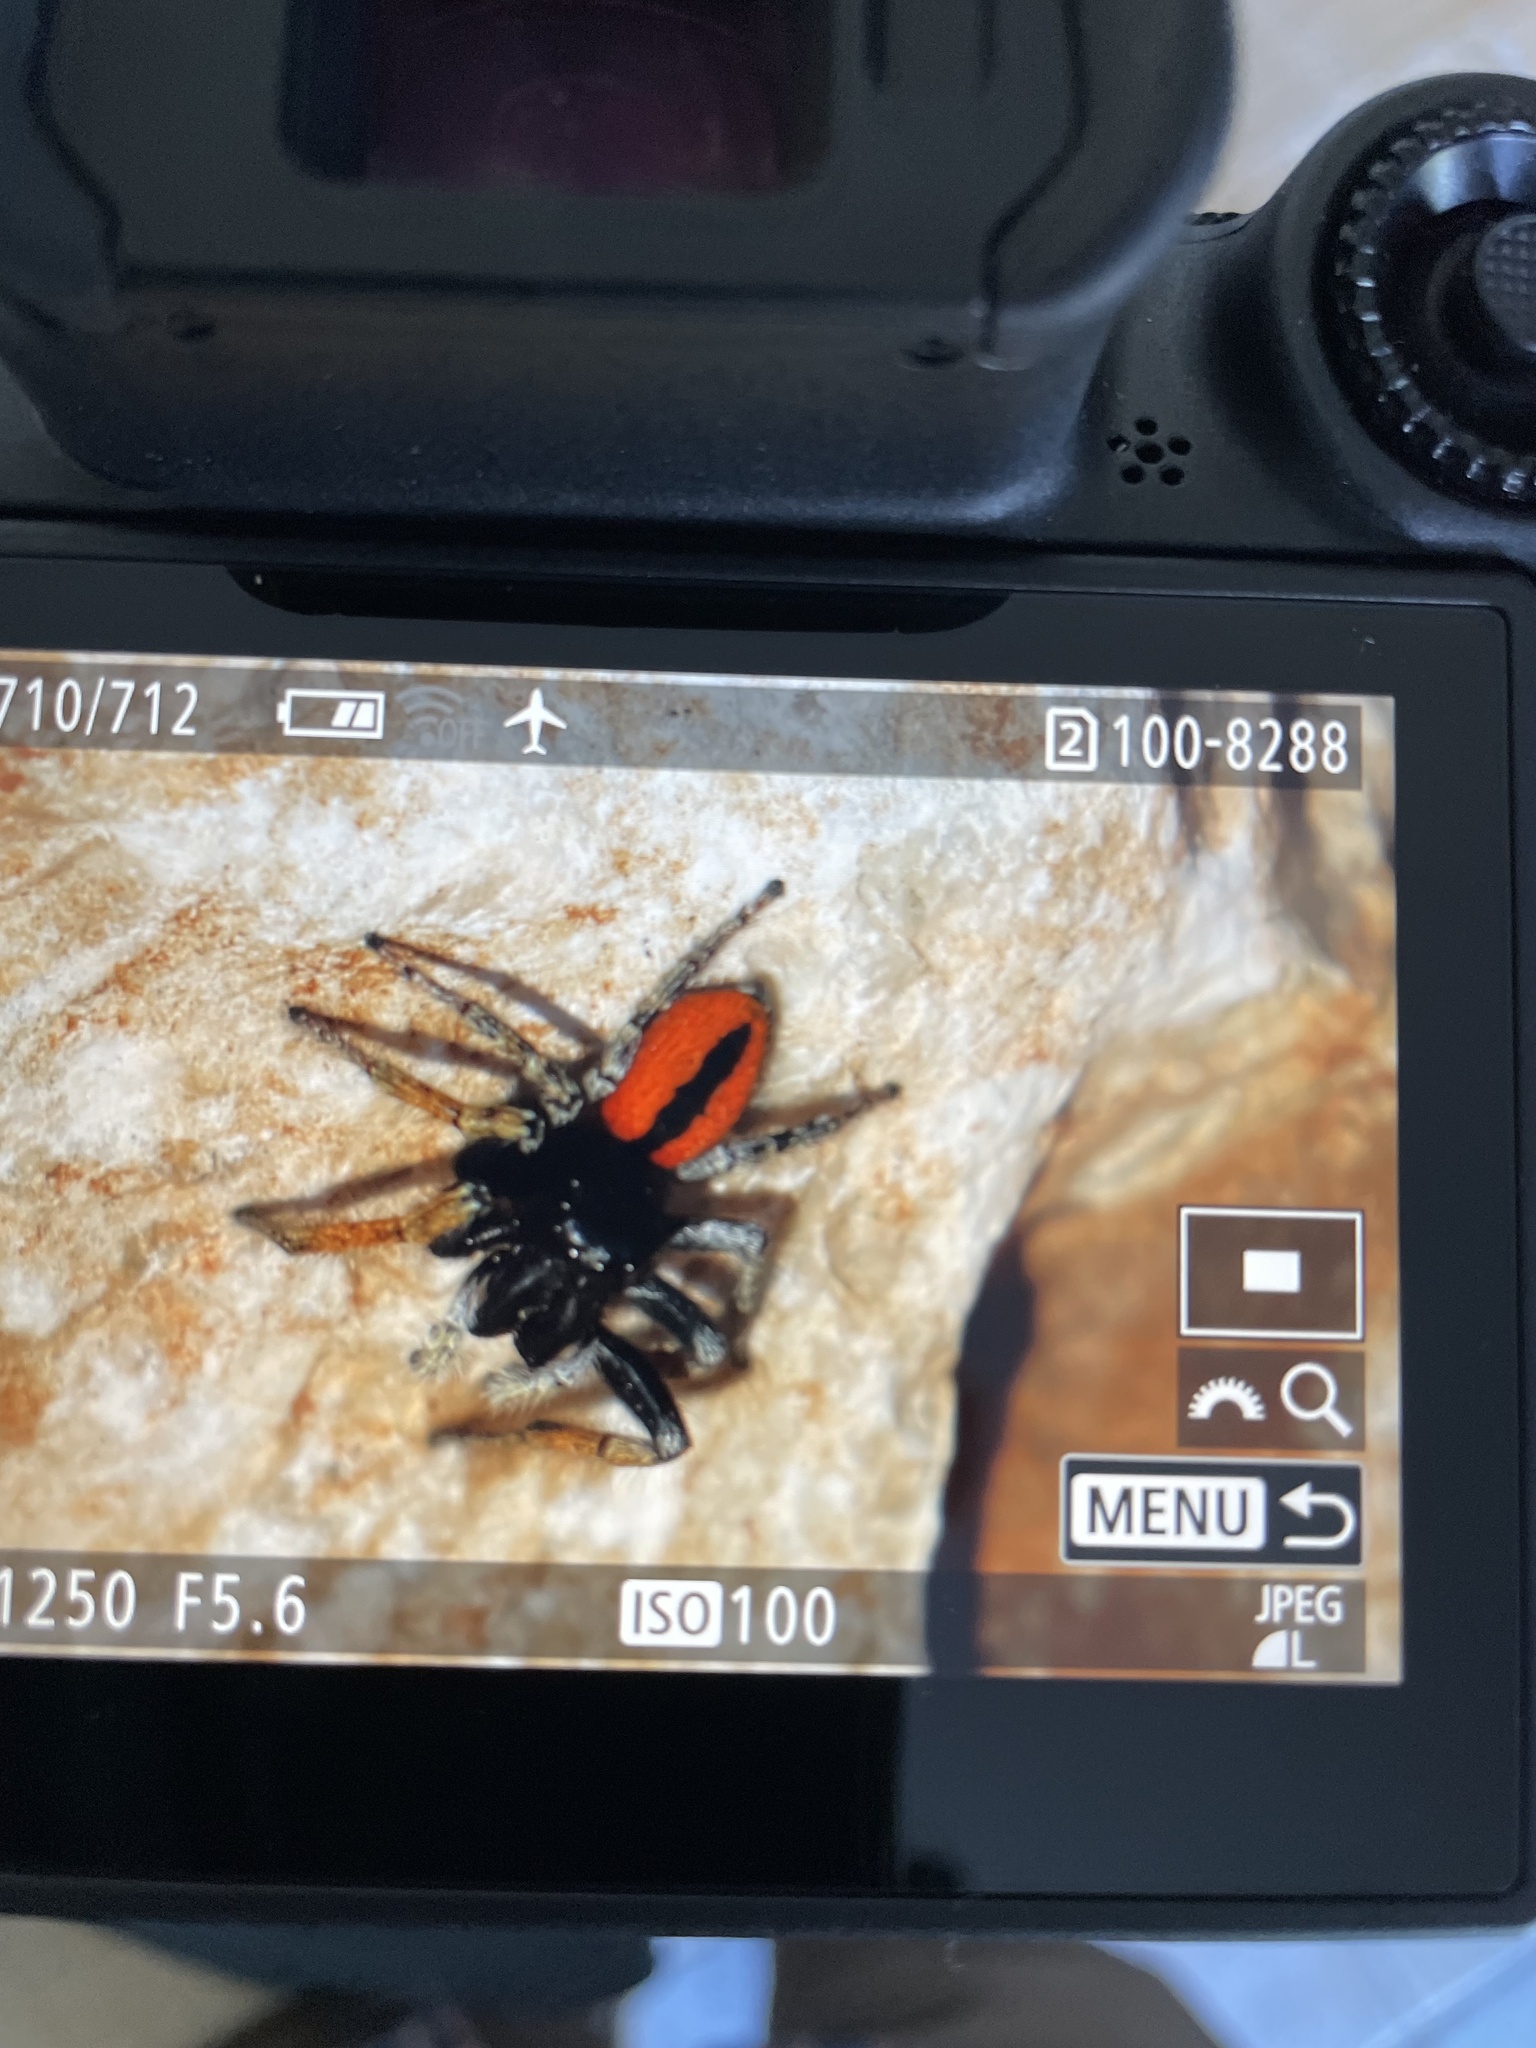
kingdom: Animalia
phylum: Arthropoda
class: Arachnida
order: Araneae
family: Salticidae
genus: Philaeus
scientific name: Philaeus chrysops
